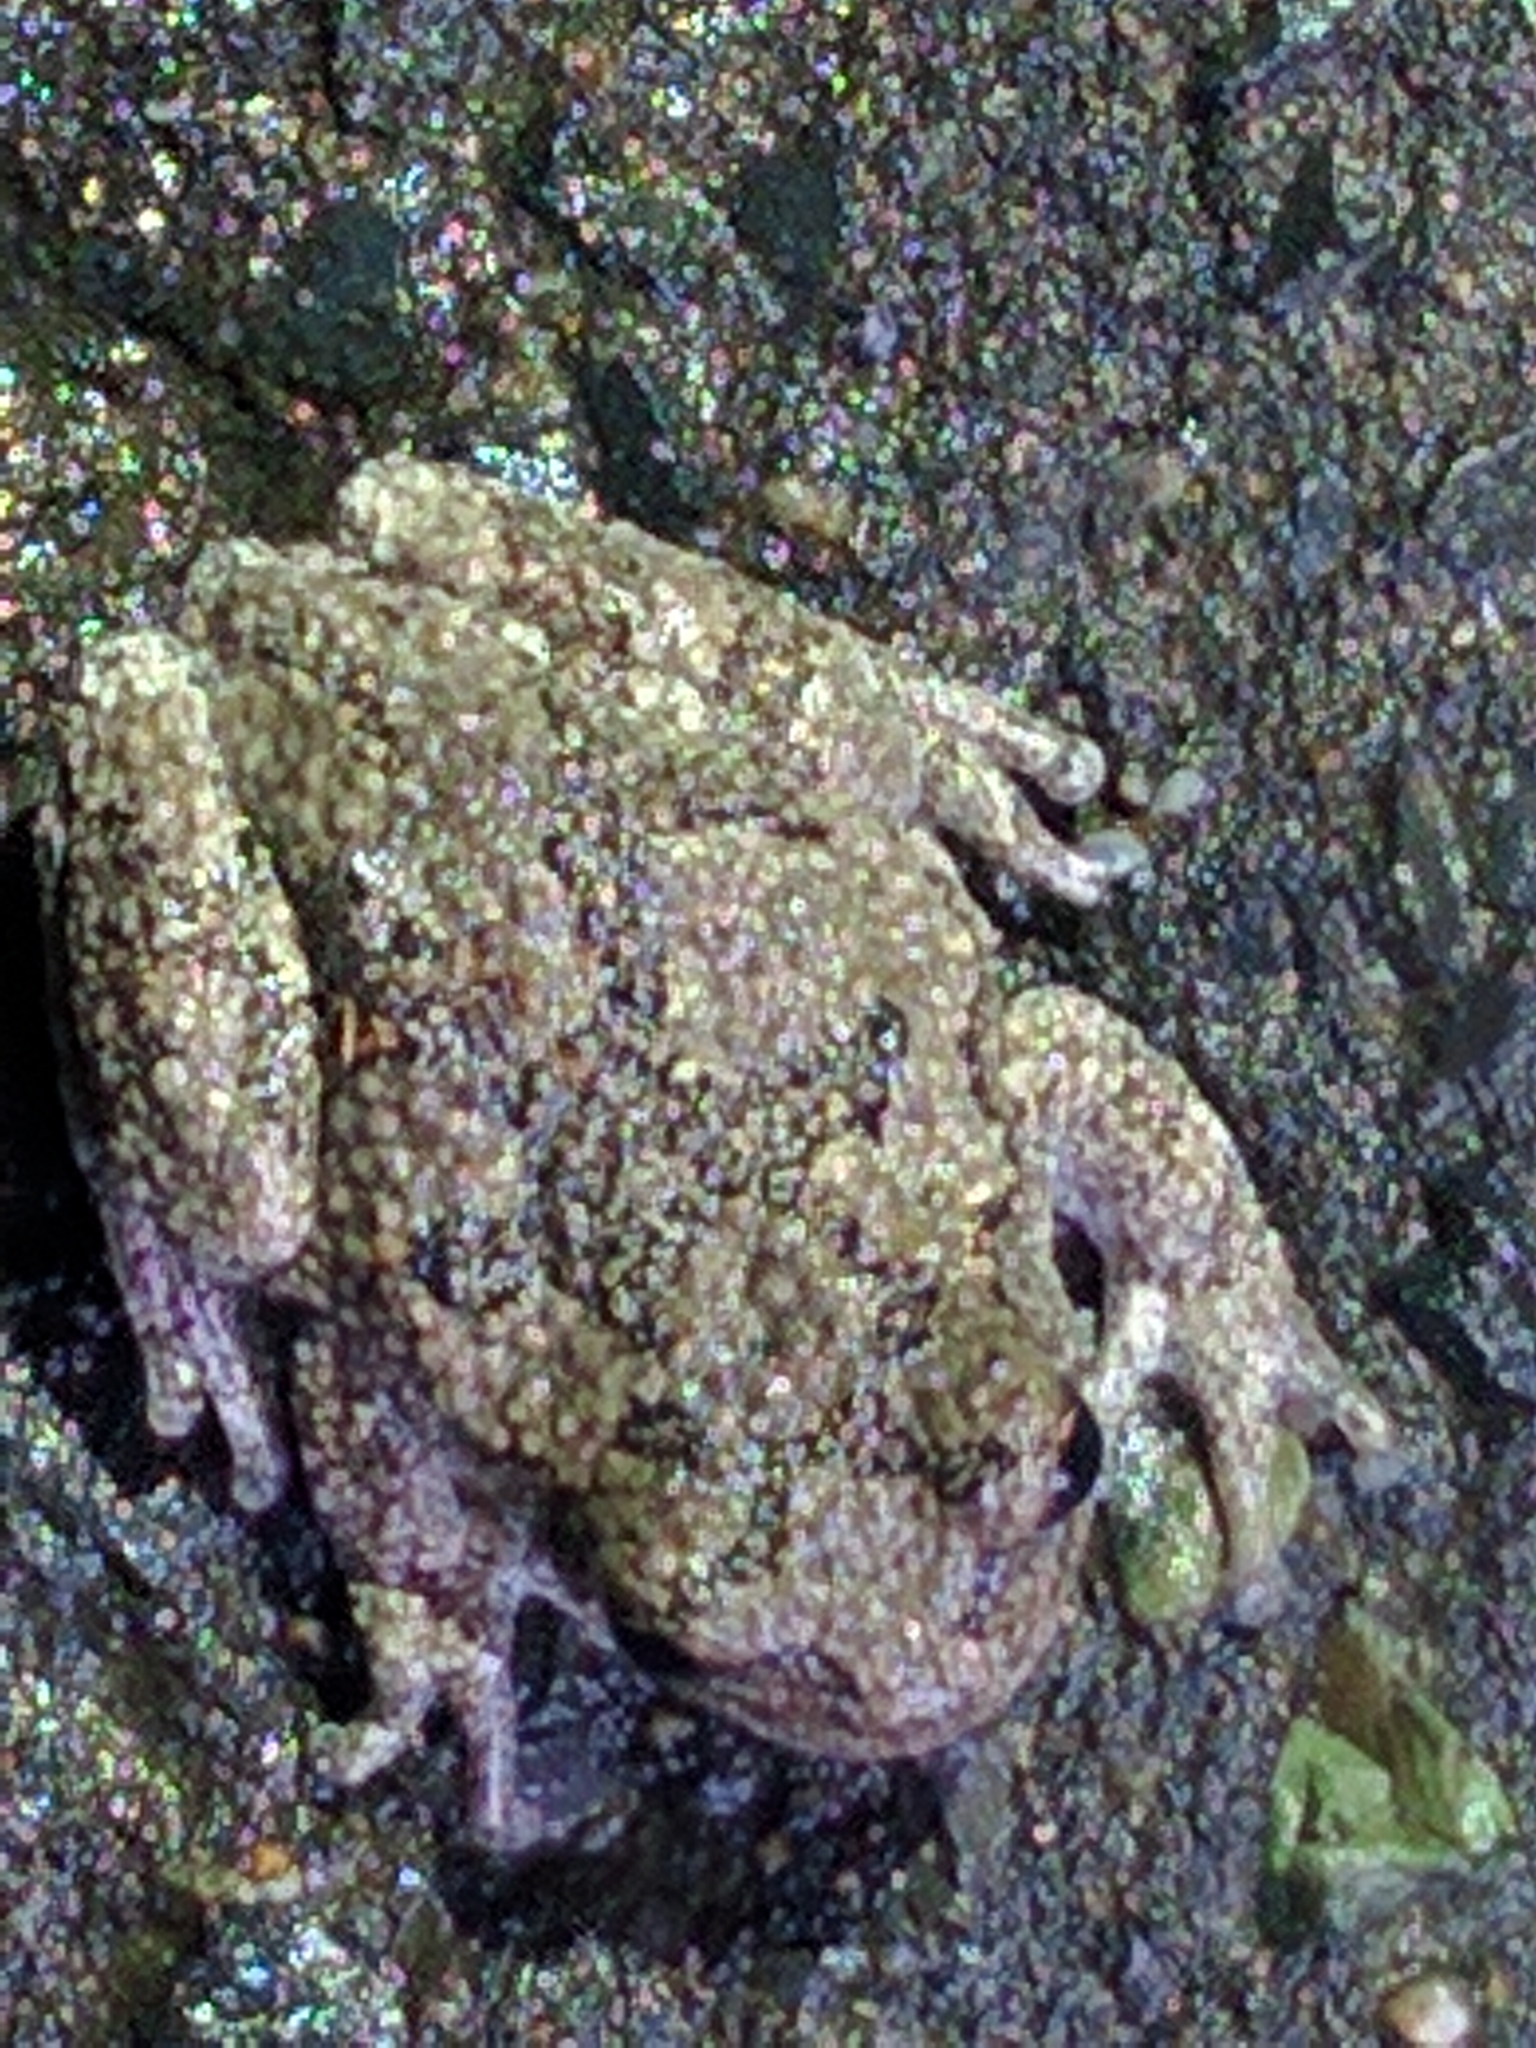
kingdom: Animalia
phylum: Chordata
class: Amphibia
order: Anura
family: Hylidae
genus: Dryophytes
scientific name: Dryophytes versicolor
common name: Gray treefrog
